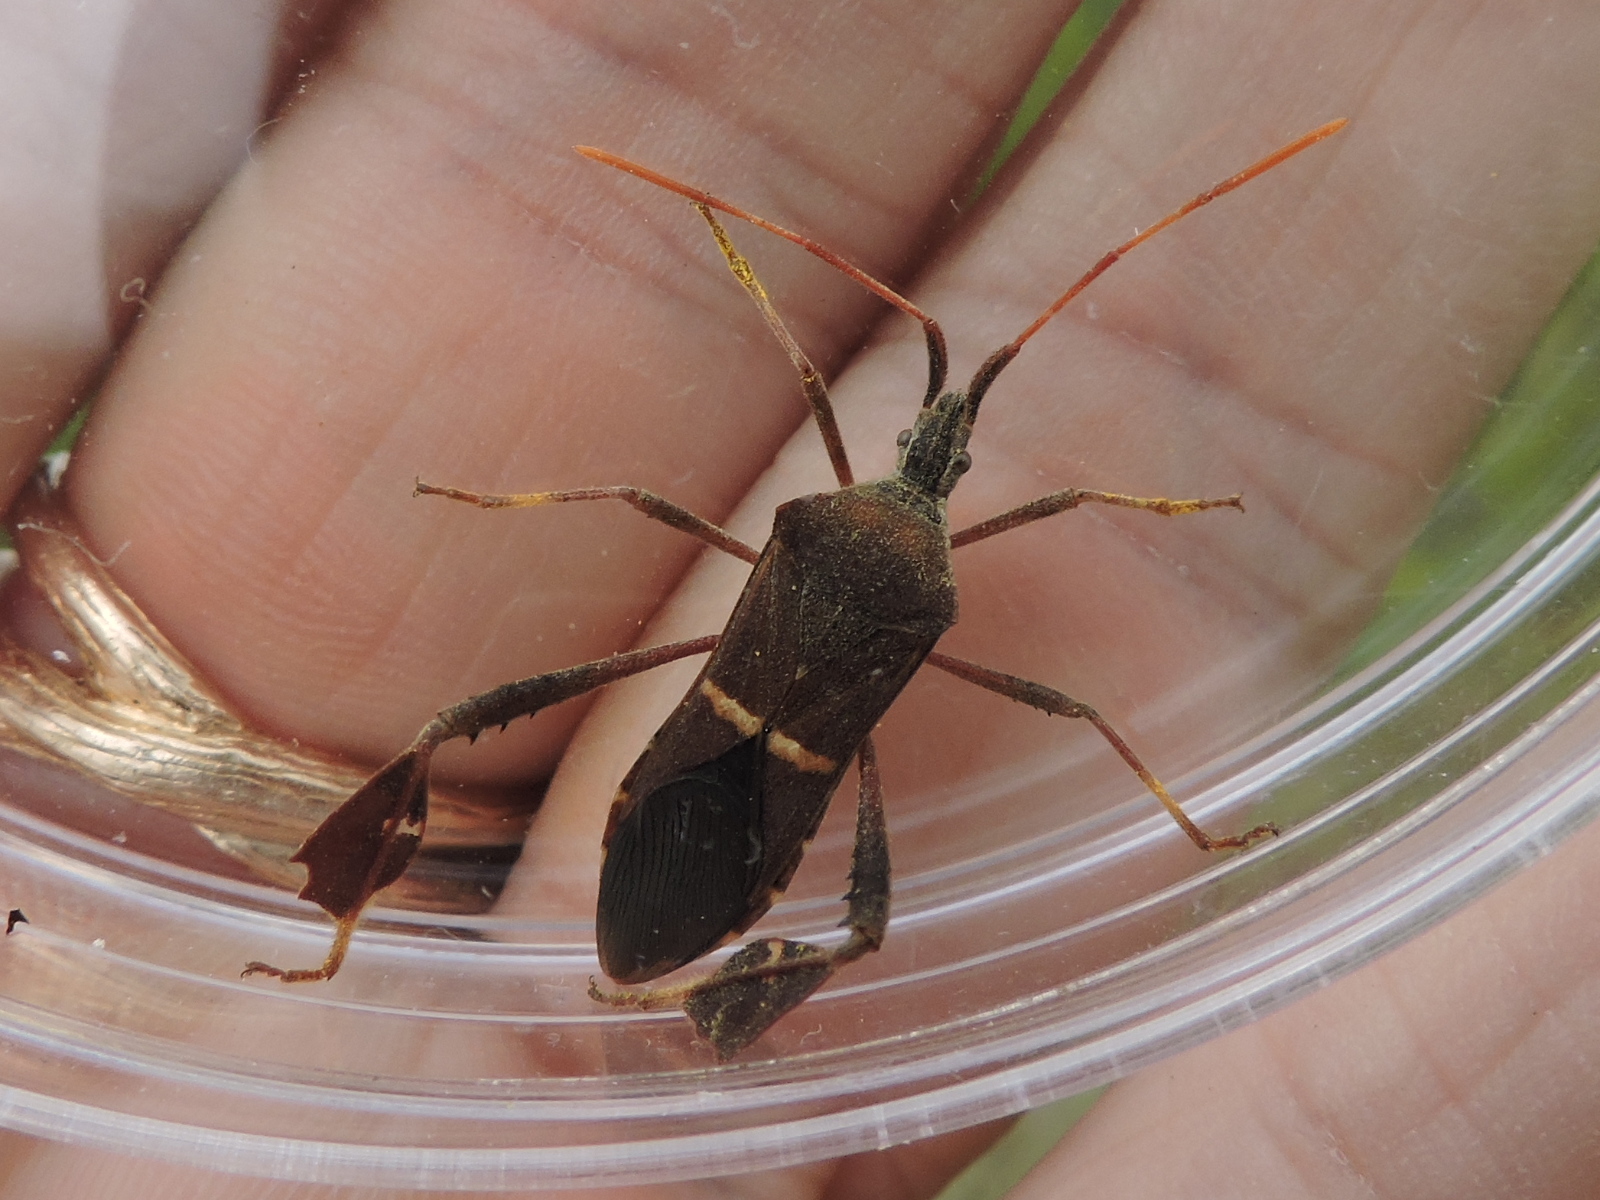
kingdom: Animalia
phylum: Arthropoda
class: Insecta
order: Hemiptera
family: Coreidae
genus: Leptoglossus
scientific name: Leptoglossus phyllopus
